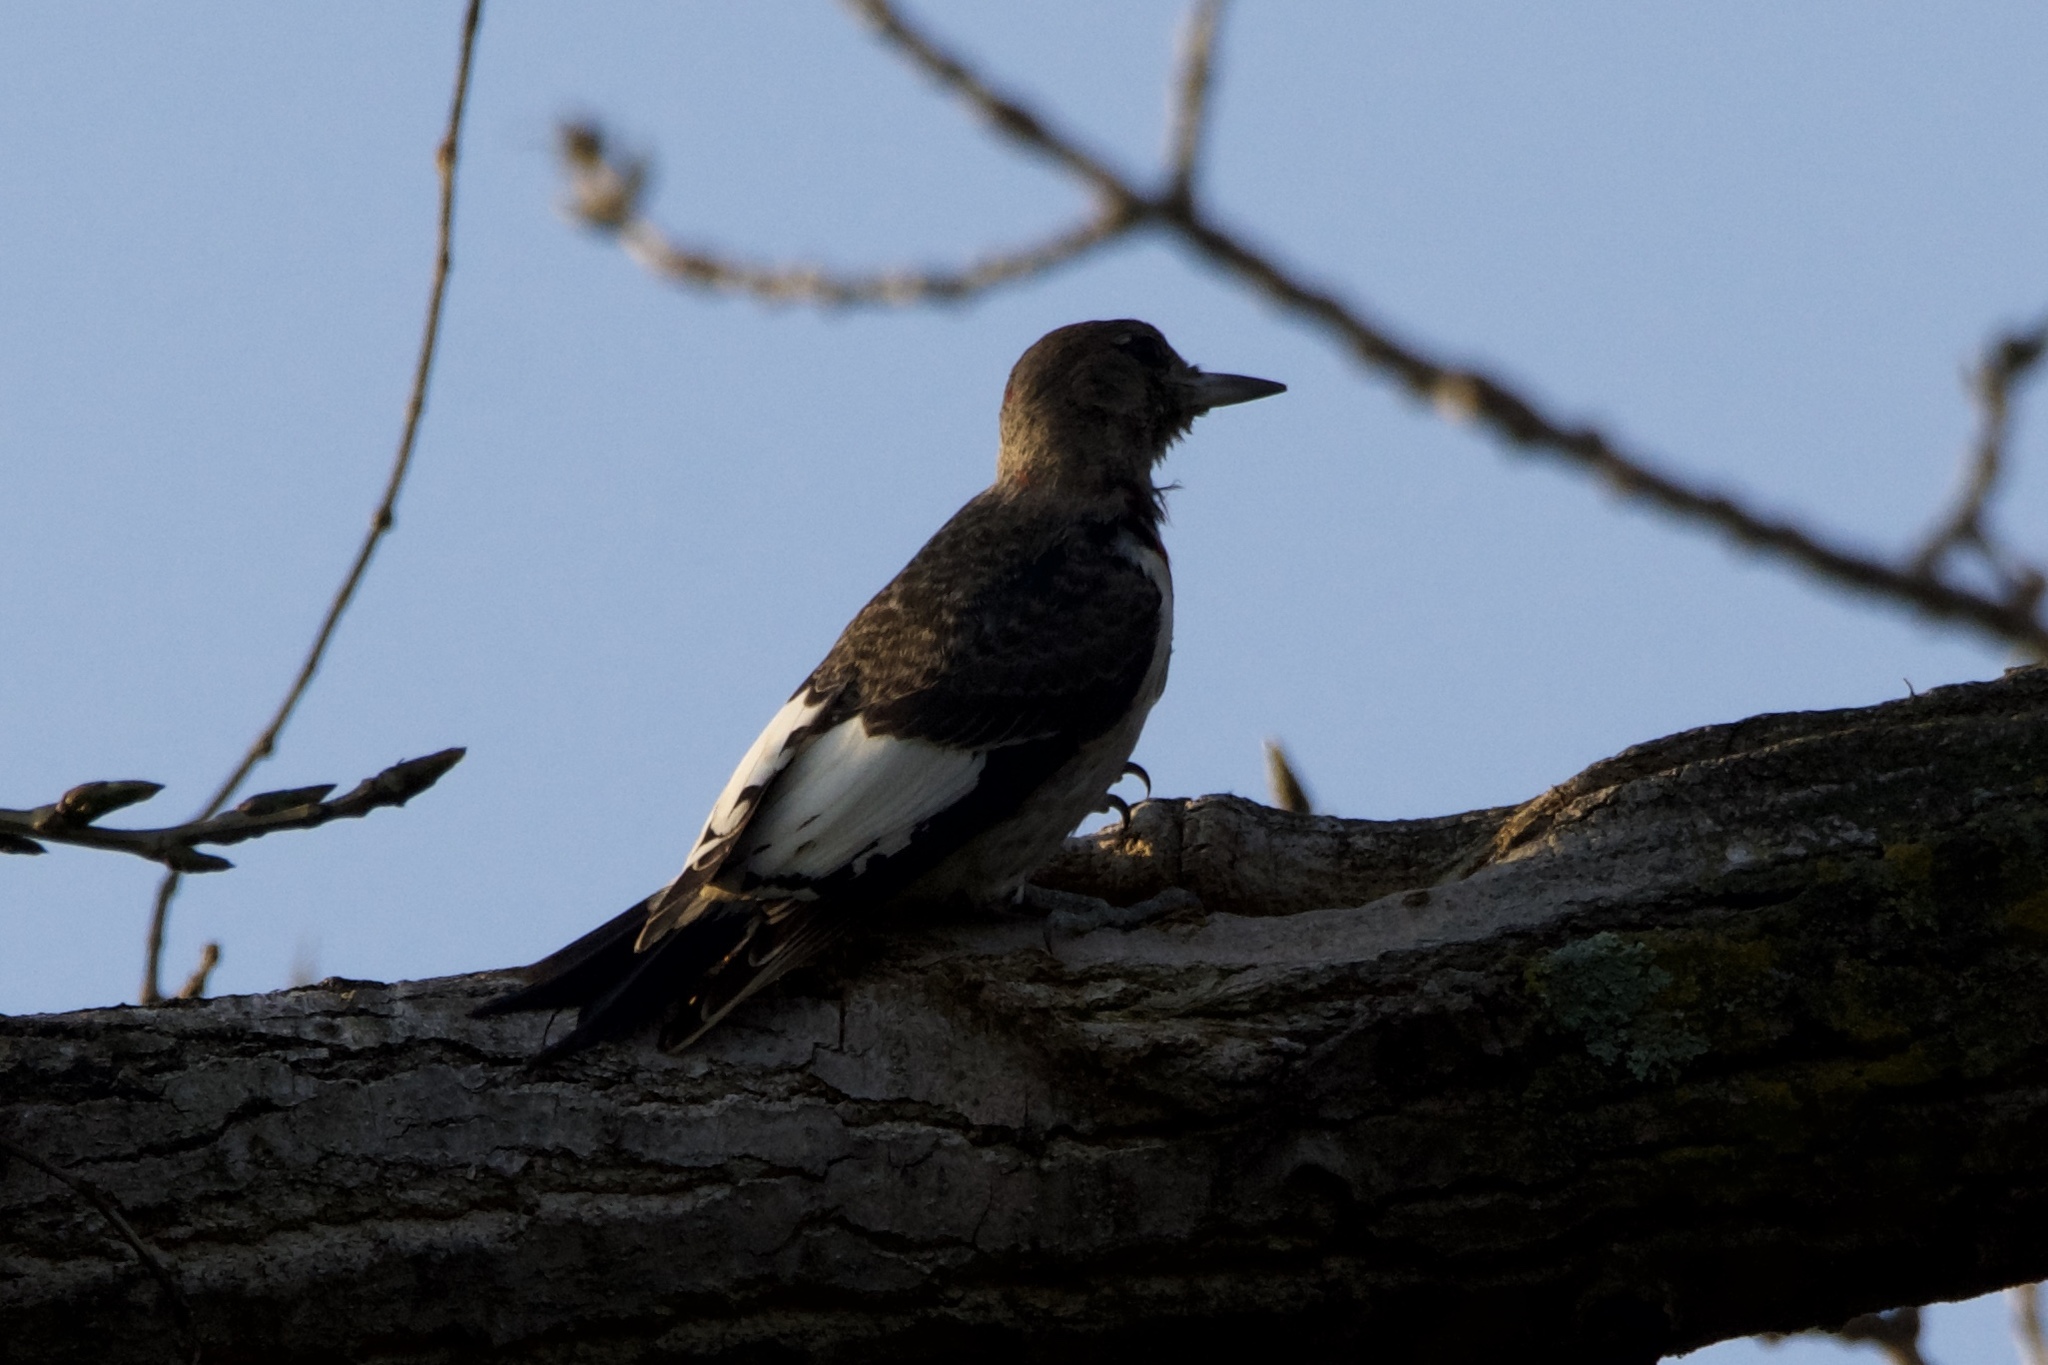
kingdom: Animalia
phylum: Chordata
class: Aves
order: Piciformes
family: Picidae
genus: Melanerpes
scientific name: Melanerpes erythrocephalus
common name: Red-headed woodpecker
